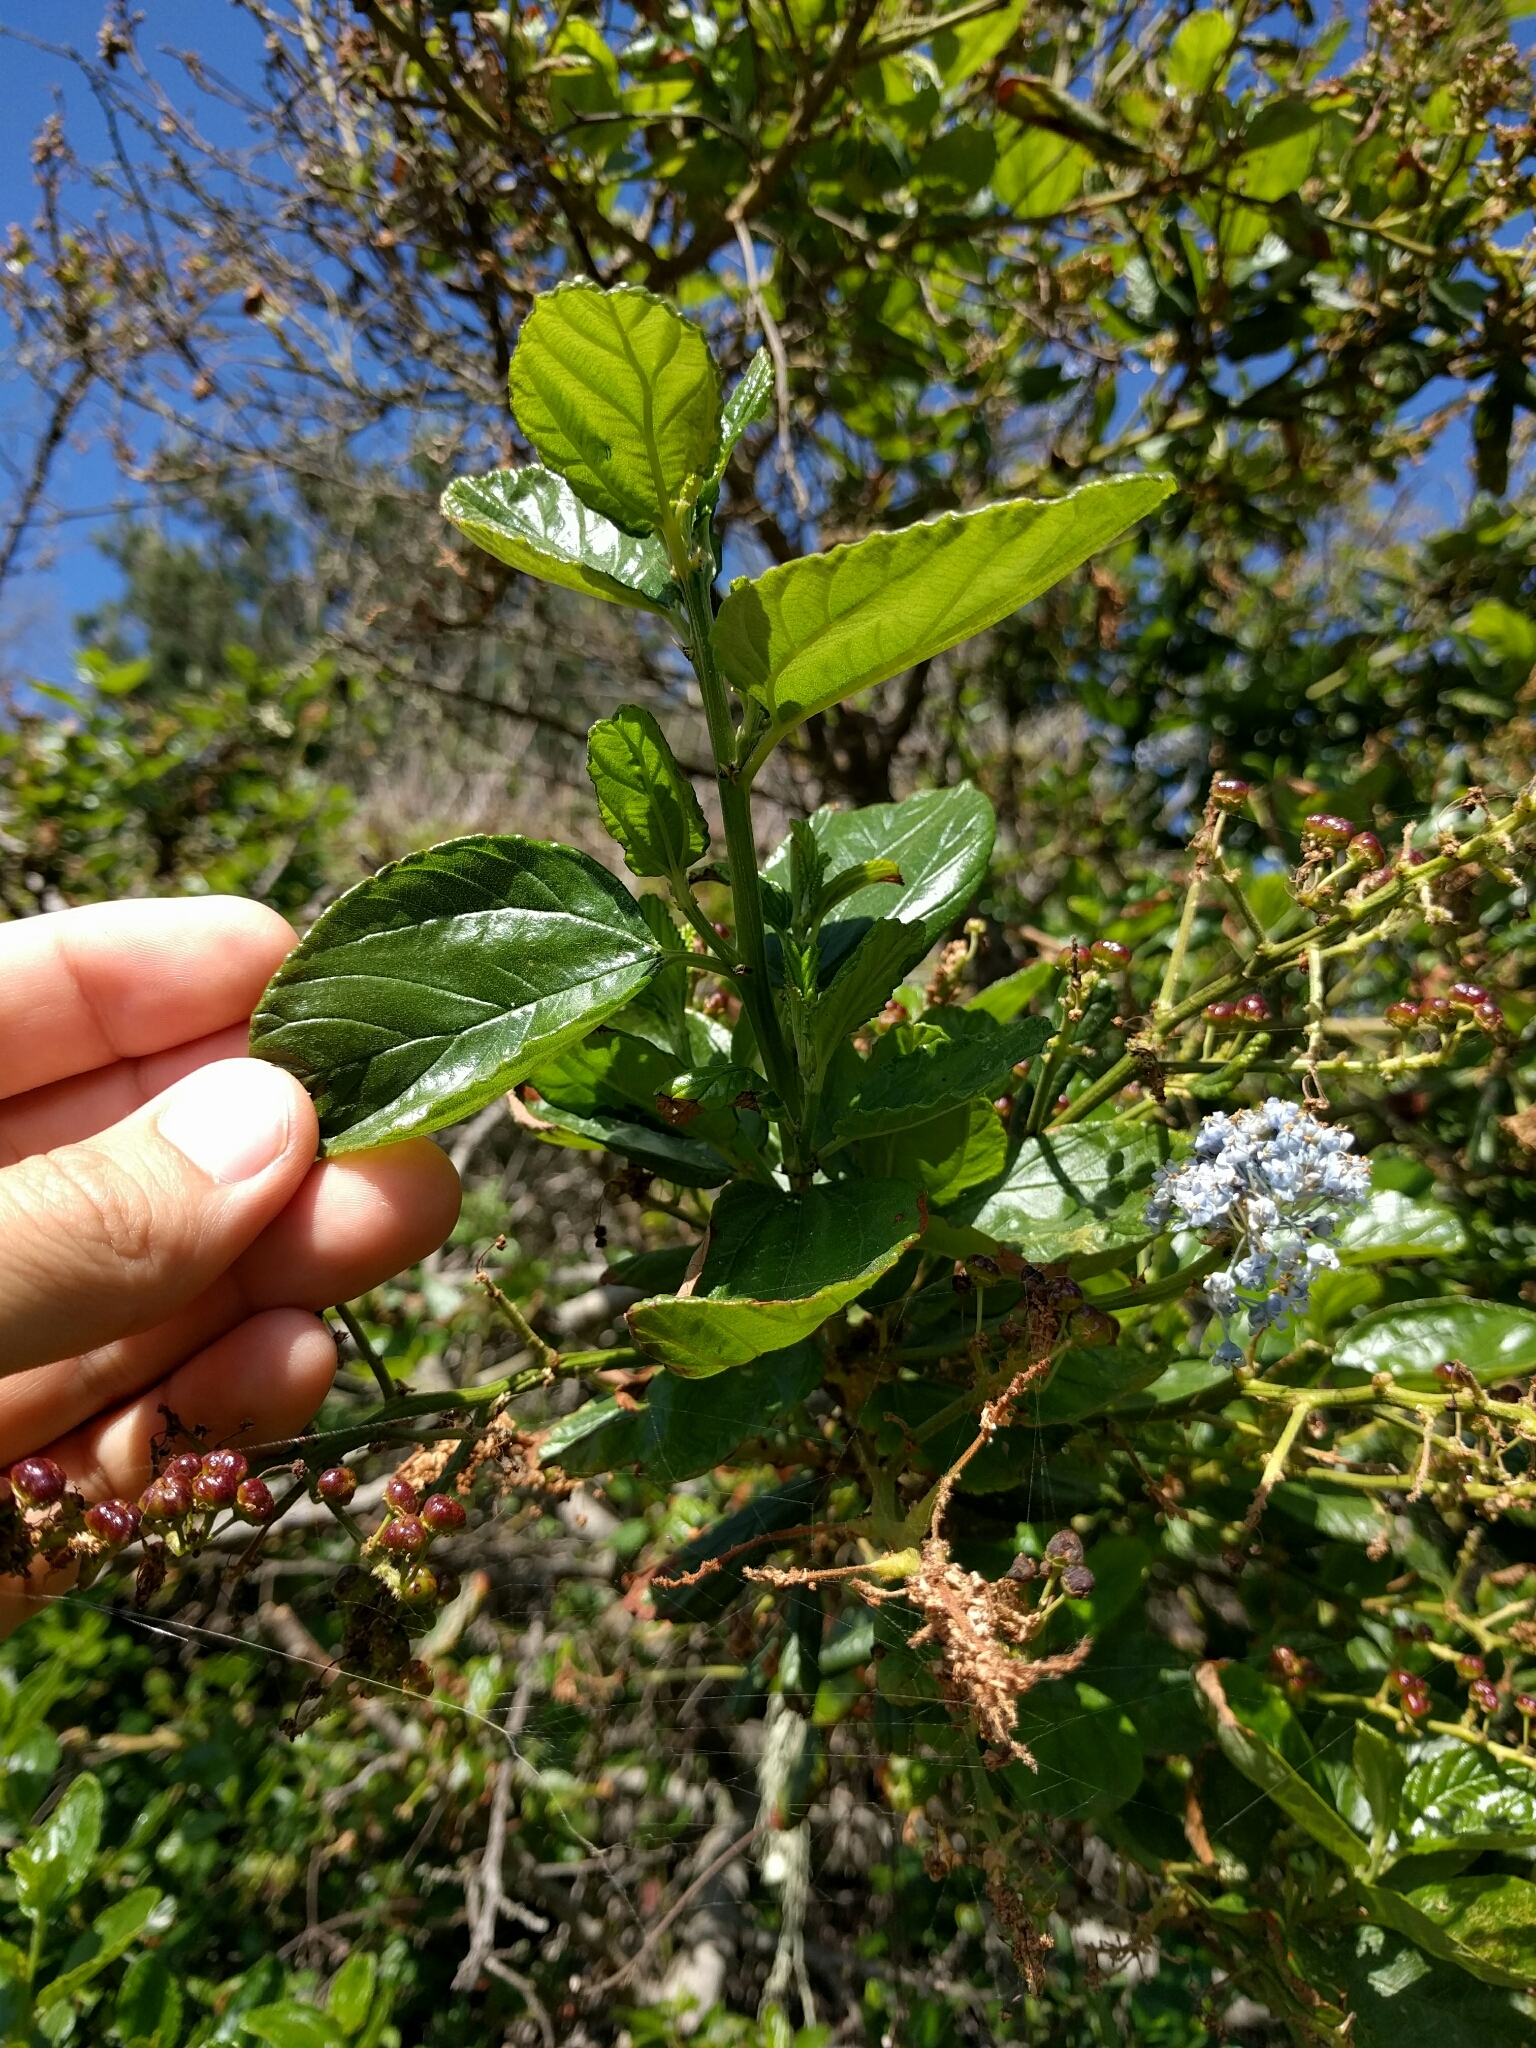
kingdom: Plantae
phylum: Tracheophyta
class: Magnoliopsida
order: Rosales
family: Rhamnaceae
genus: Ceanothus
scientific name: Ceanothus thyrsiflorus
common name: California-lilac
